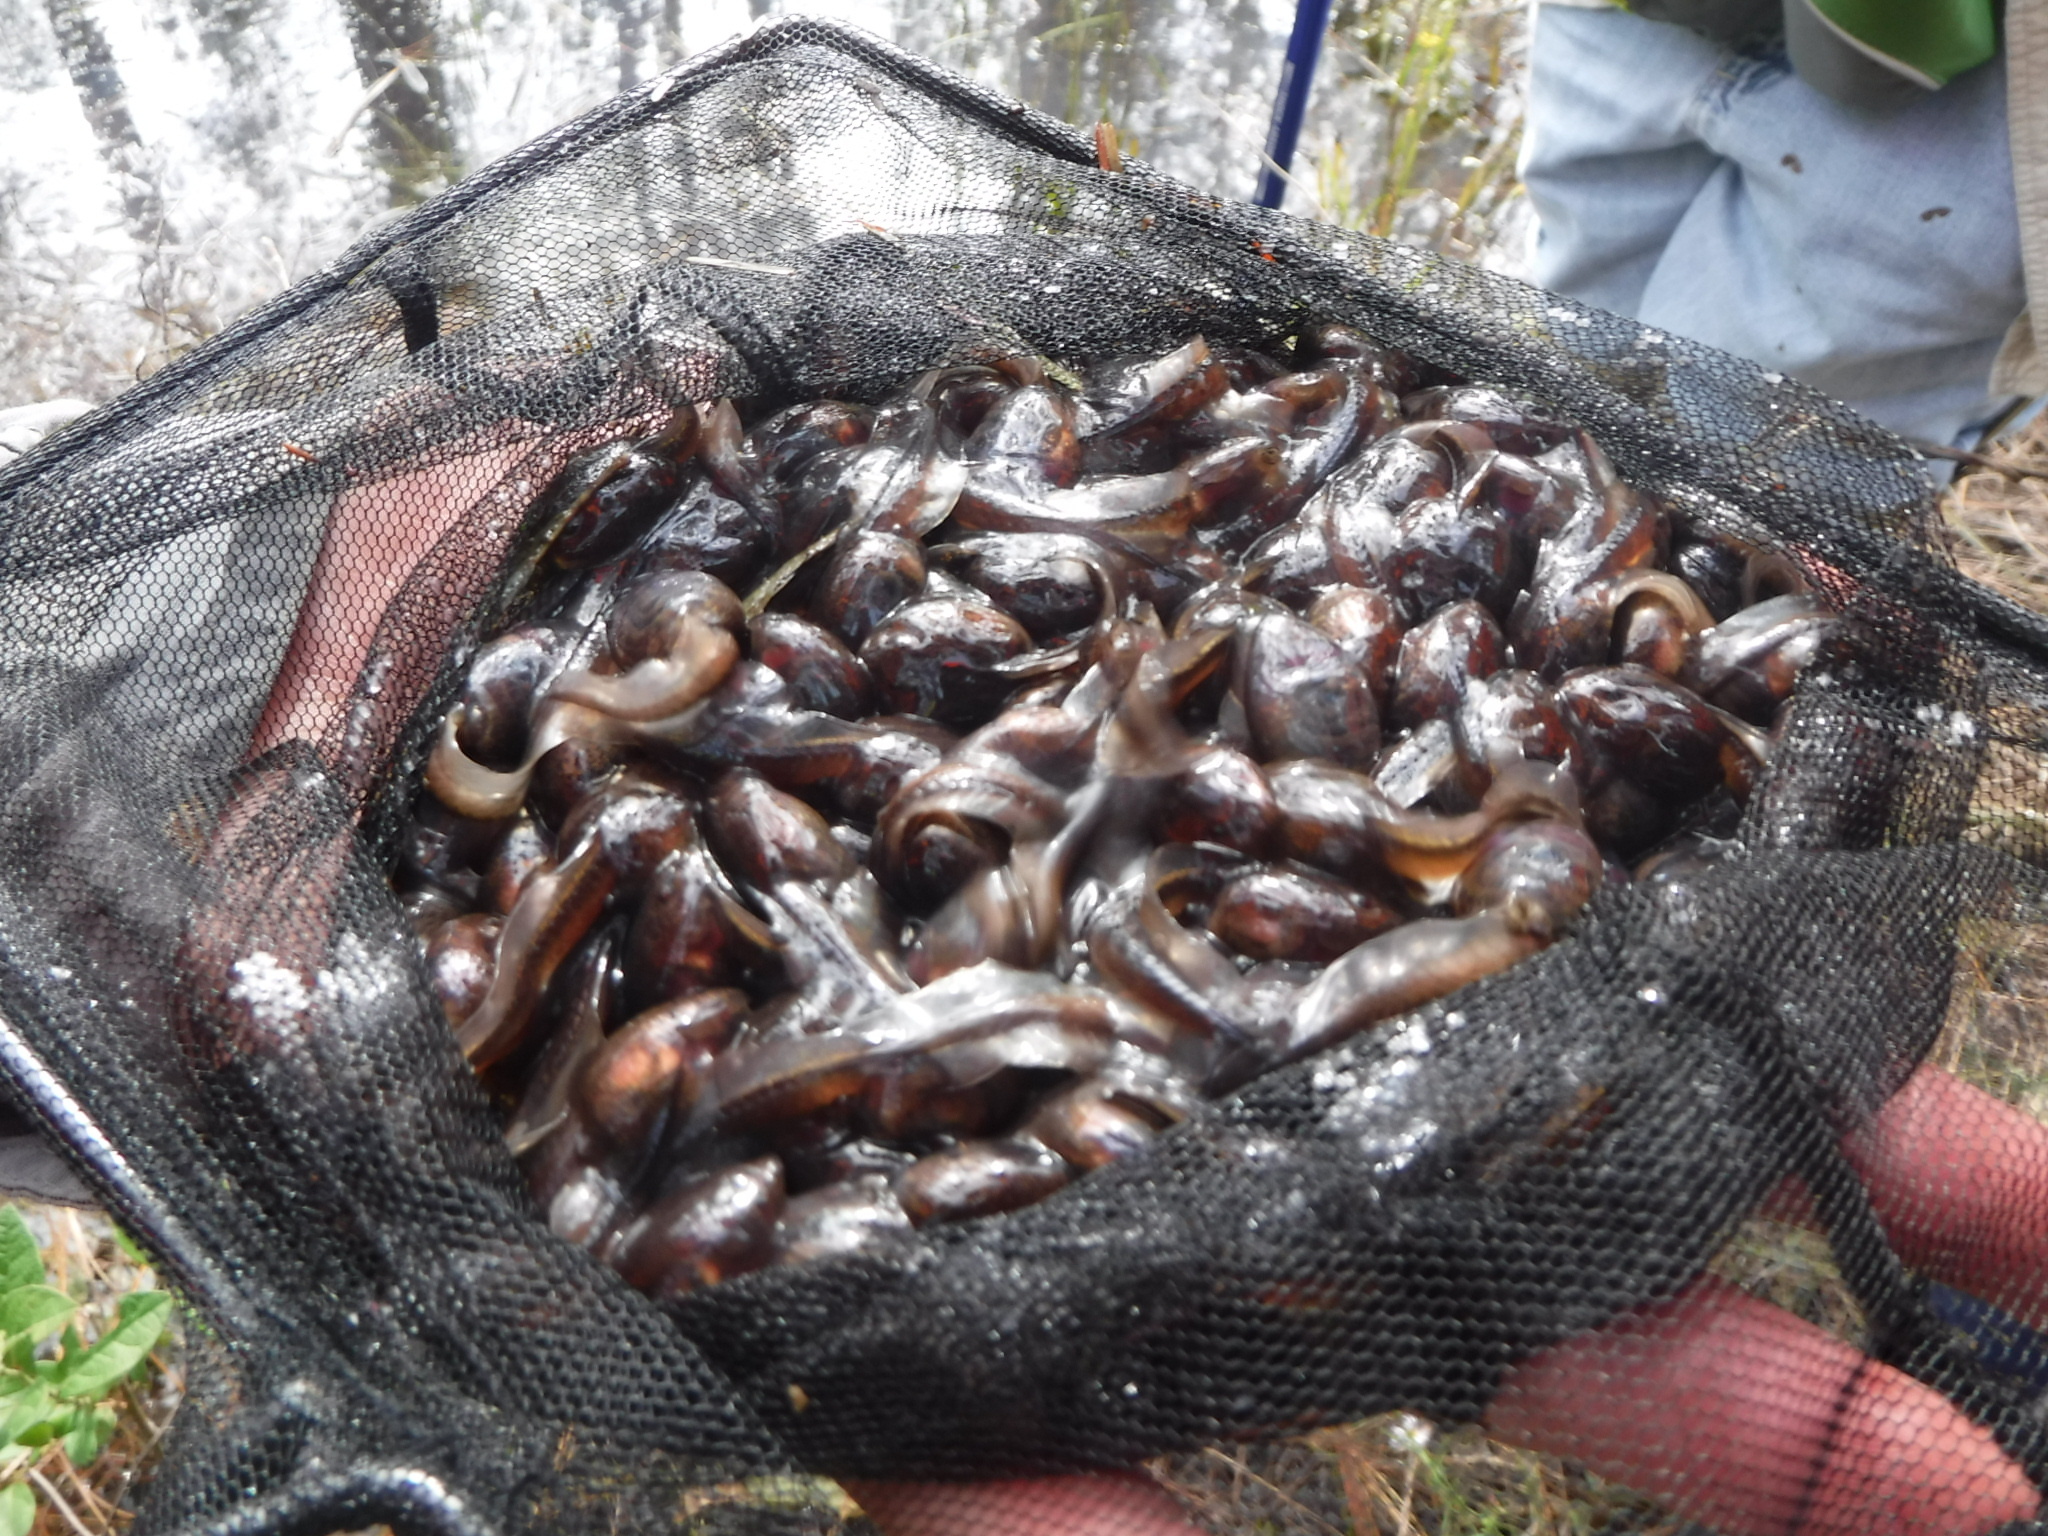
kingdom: Animalia
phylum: Chordata
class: Amphibia
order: Anura
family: Scaphiopodidae
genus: Scaphiopus
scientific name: Scaphiopus holbrookii
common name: Eastern spadefoot toad
